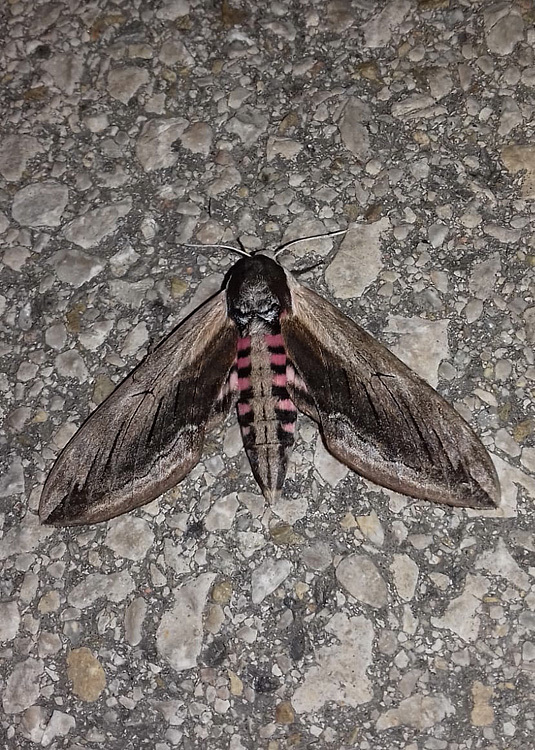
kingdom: Animalia
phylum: Arthropoda
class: Insecta
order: Lepidoptera
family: Sphingidae
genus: Sphinx
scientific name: Sphinx ligustri
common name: Privet hawk-moth
